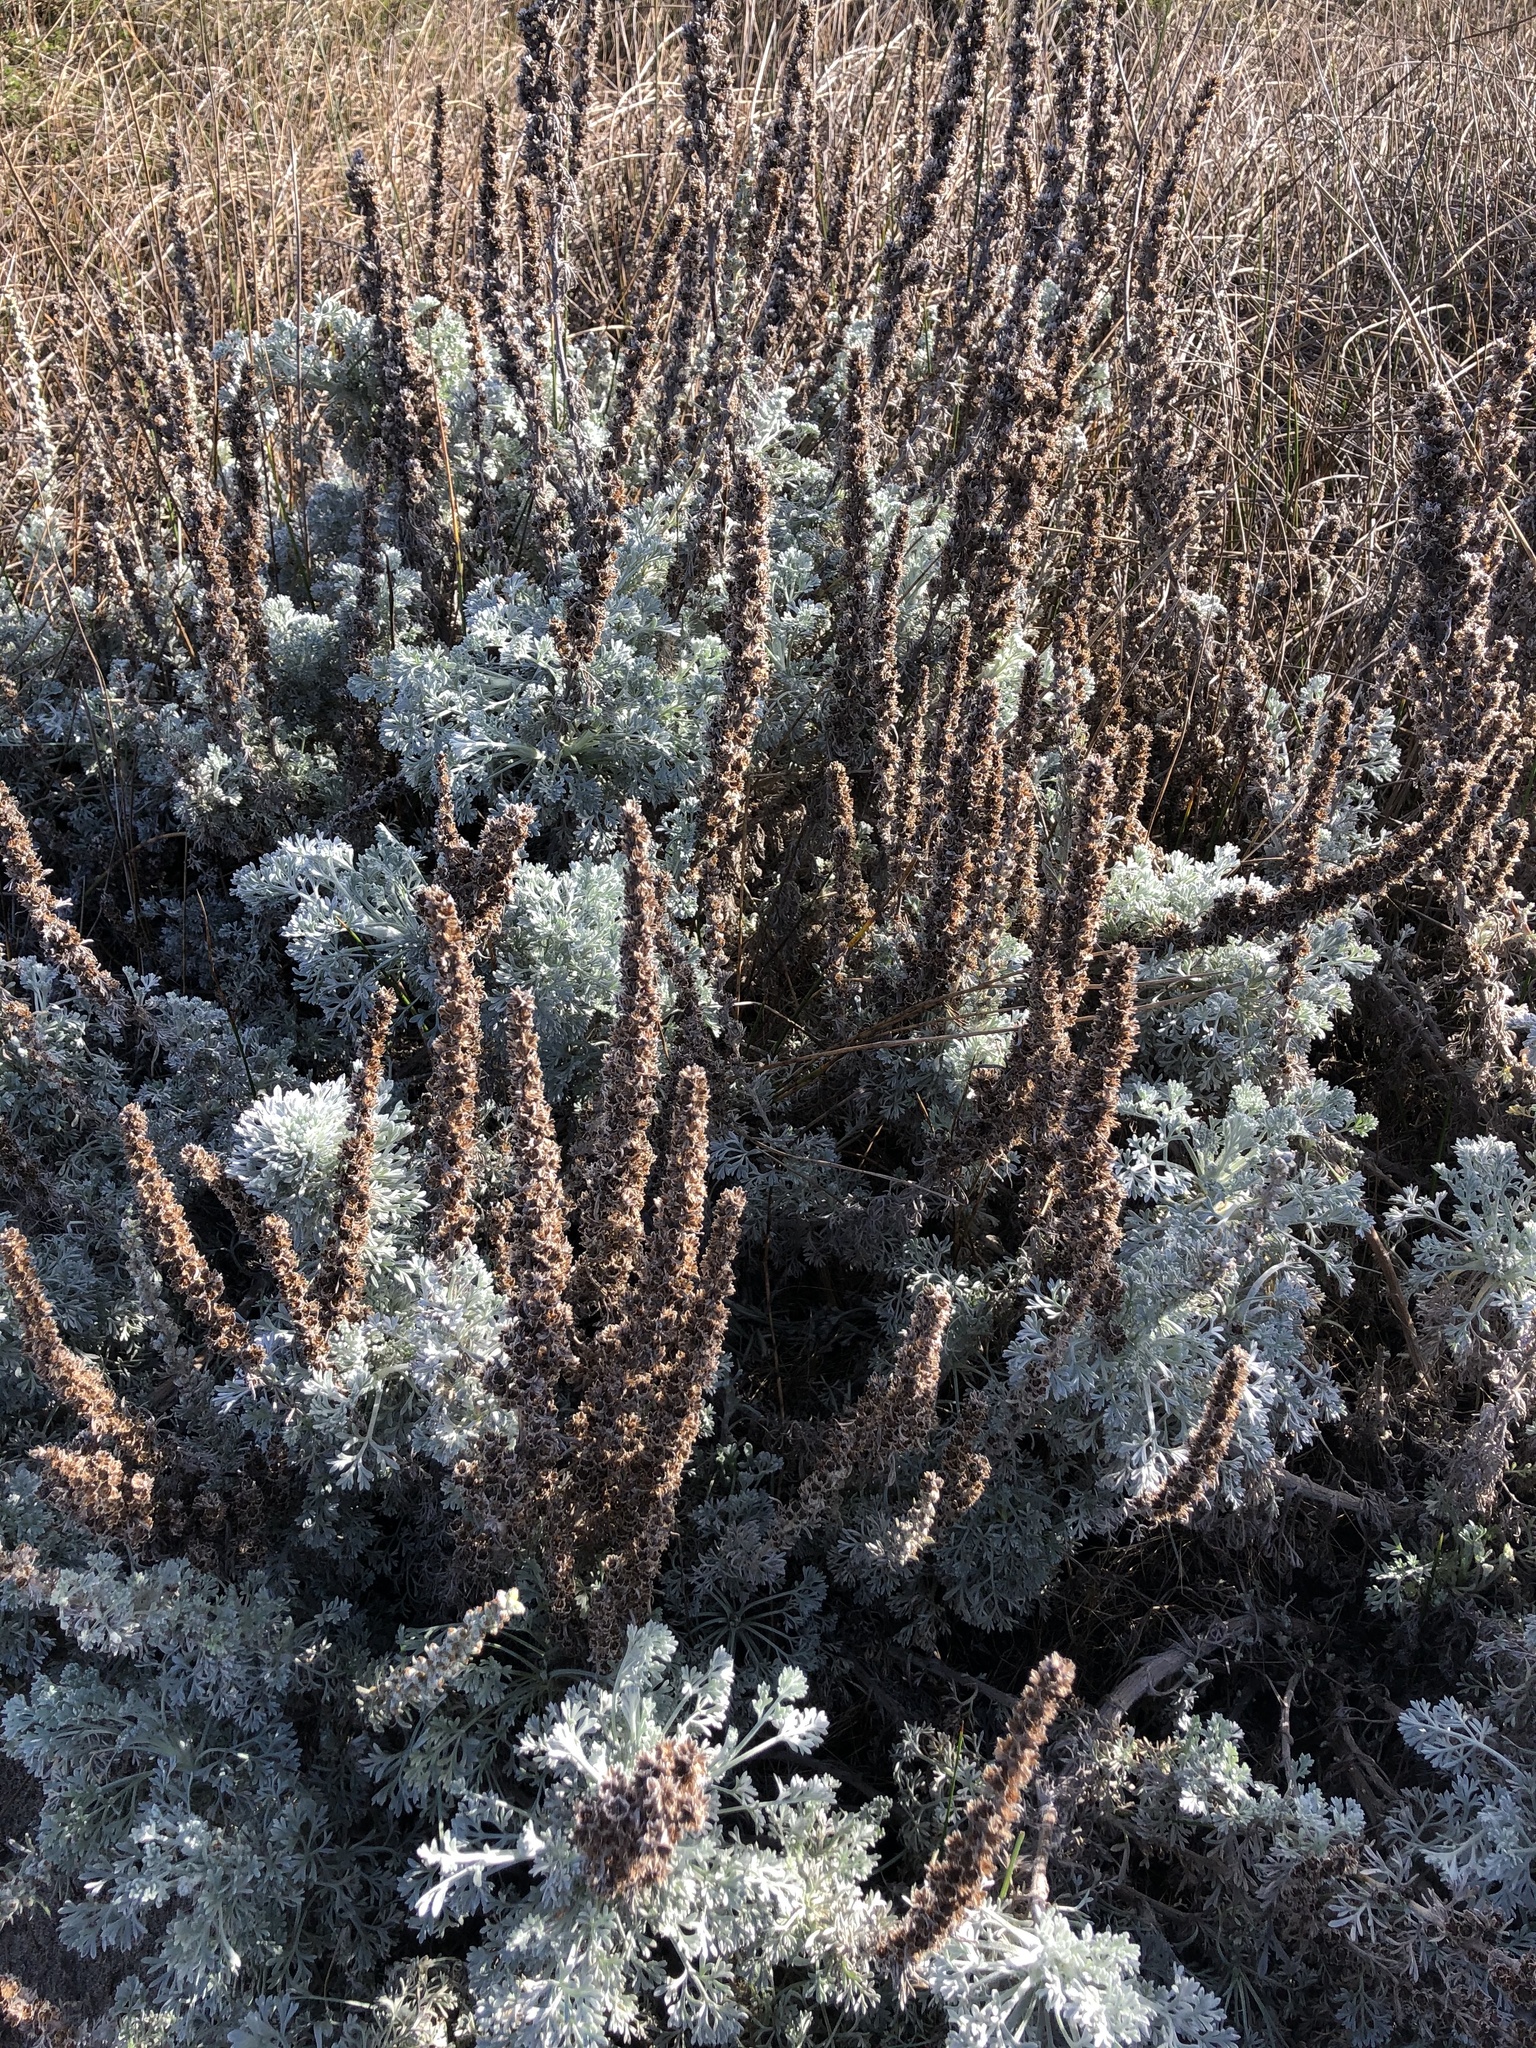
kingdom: Plantae
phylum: Tracheophyta
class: Magnoliopsida
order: Asterales
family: Asteraceae
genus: Artemisia
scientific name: Artemisia pycnocephala
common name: Coastal sagewort
